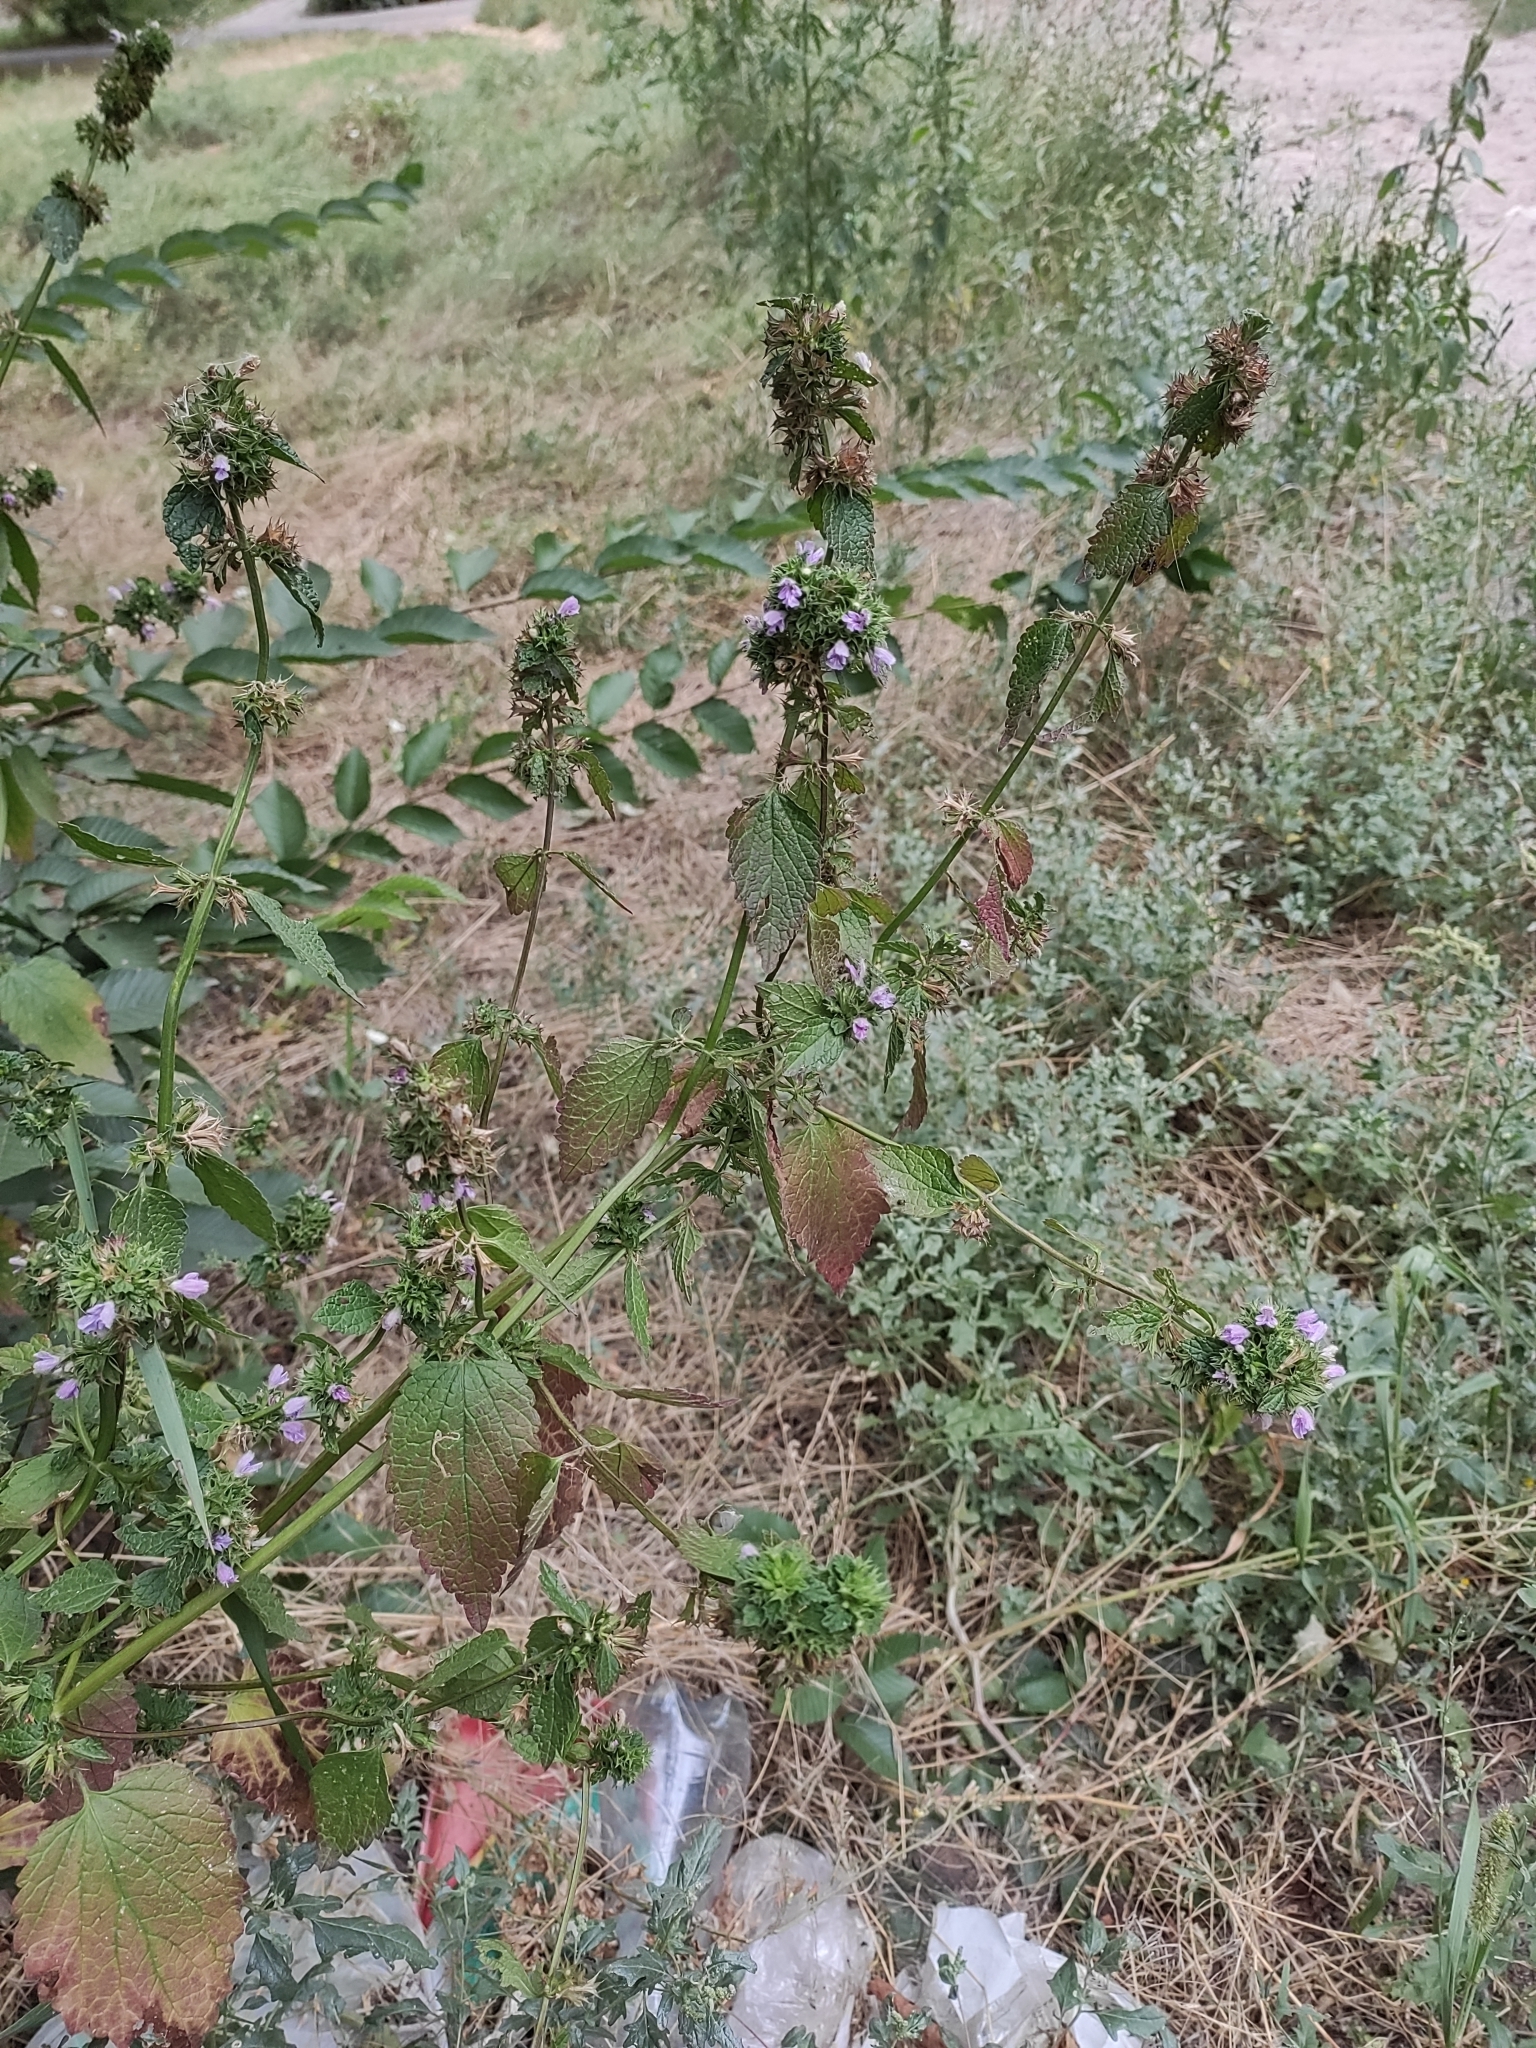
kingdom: Plantae
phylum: Tracheophyta
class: Magnoliopsida
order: Lamiales
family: Lamiaceae
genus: Ballota
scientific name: Ballota nigra
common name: Black horehound
